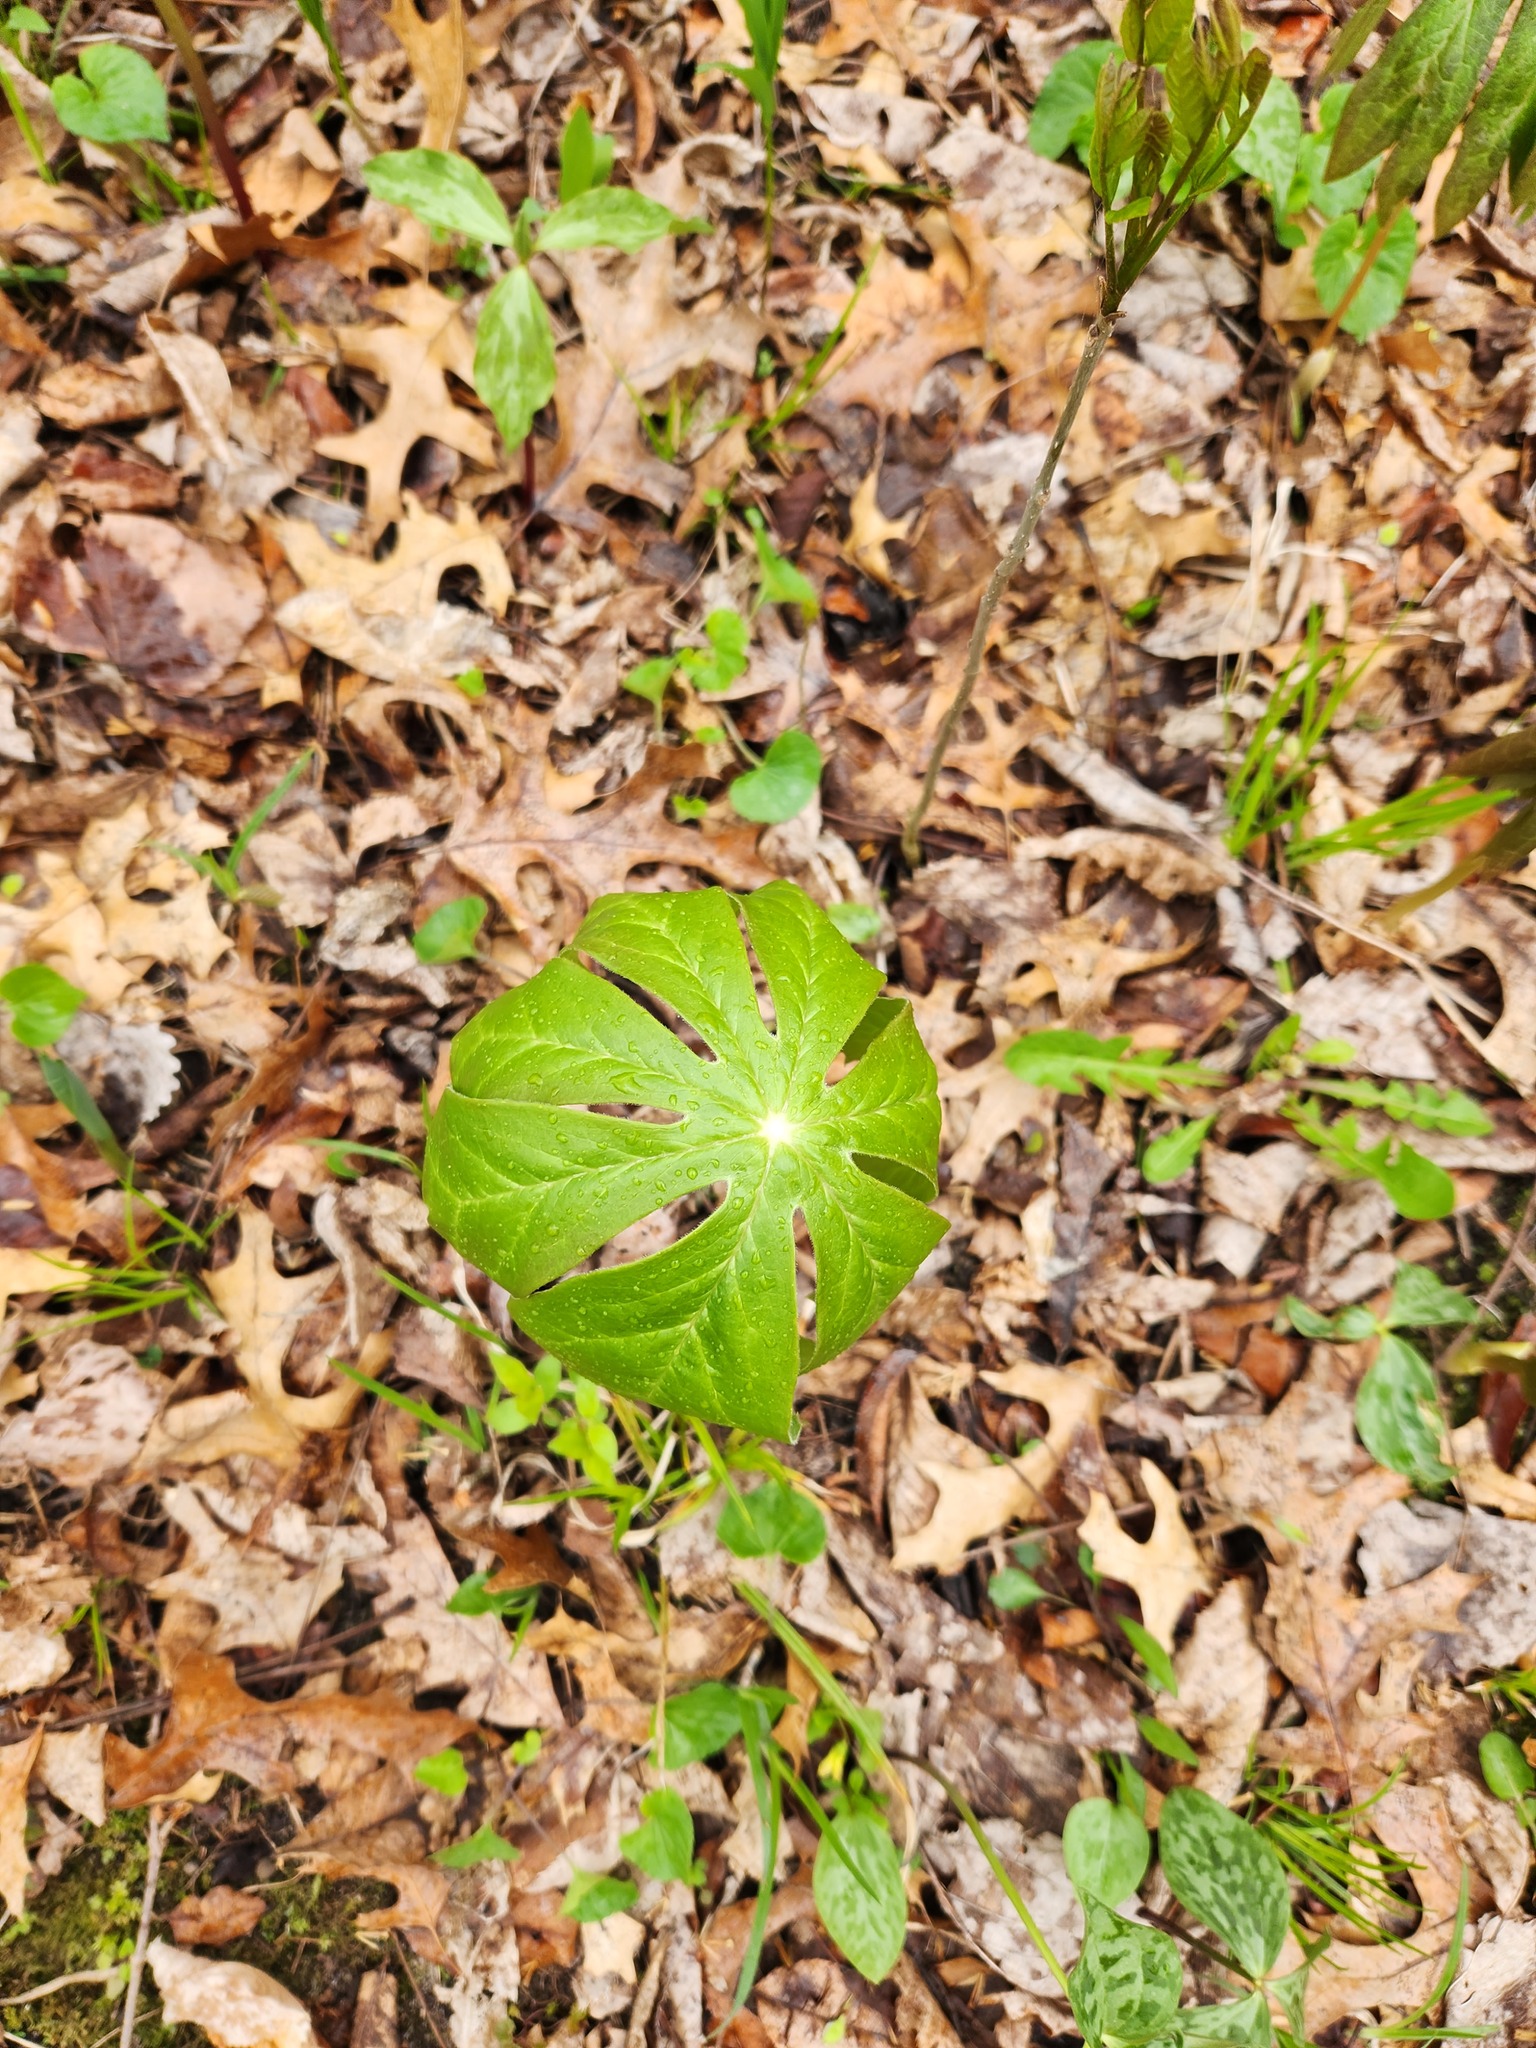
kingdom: Plantae
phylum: Tracheophyta
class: Magnoliopsida
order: Ranunculales
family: Berberidaceae
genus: Podophyllum
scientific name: Podophyllum peltatum
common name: Wild mandrake
